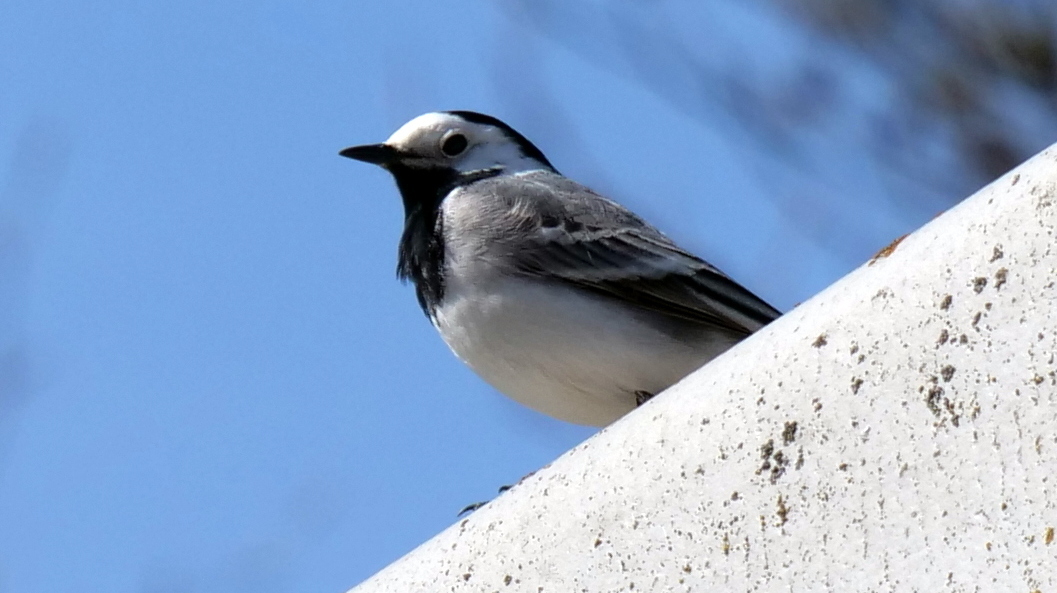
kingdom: Animalia
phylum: Chordata
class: Aves
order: Passeriformes
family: Motacillidae
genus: Motacilla
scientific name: Motacilla alba
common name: White wagtail
